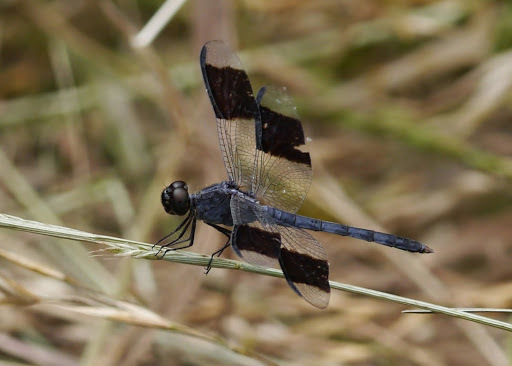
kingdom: Animalia
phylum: Arthropoda
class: Insecta
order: Odonata
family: Libellulidae
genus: Erythrodiplax
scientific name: Erythrodiplax umbrata
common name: Band-winged dragonlet
